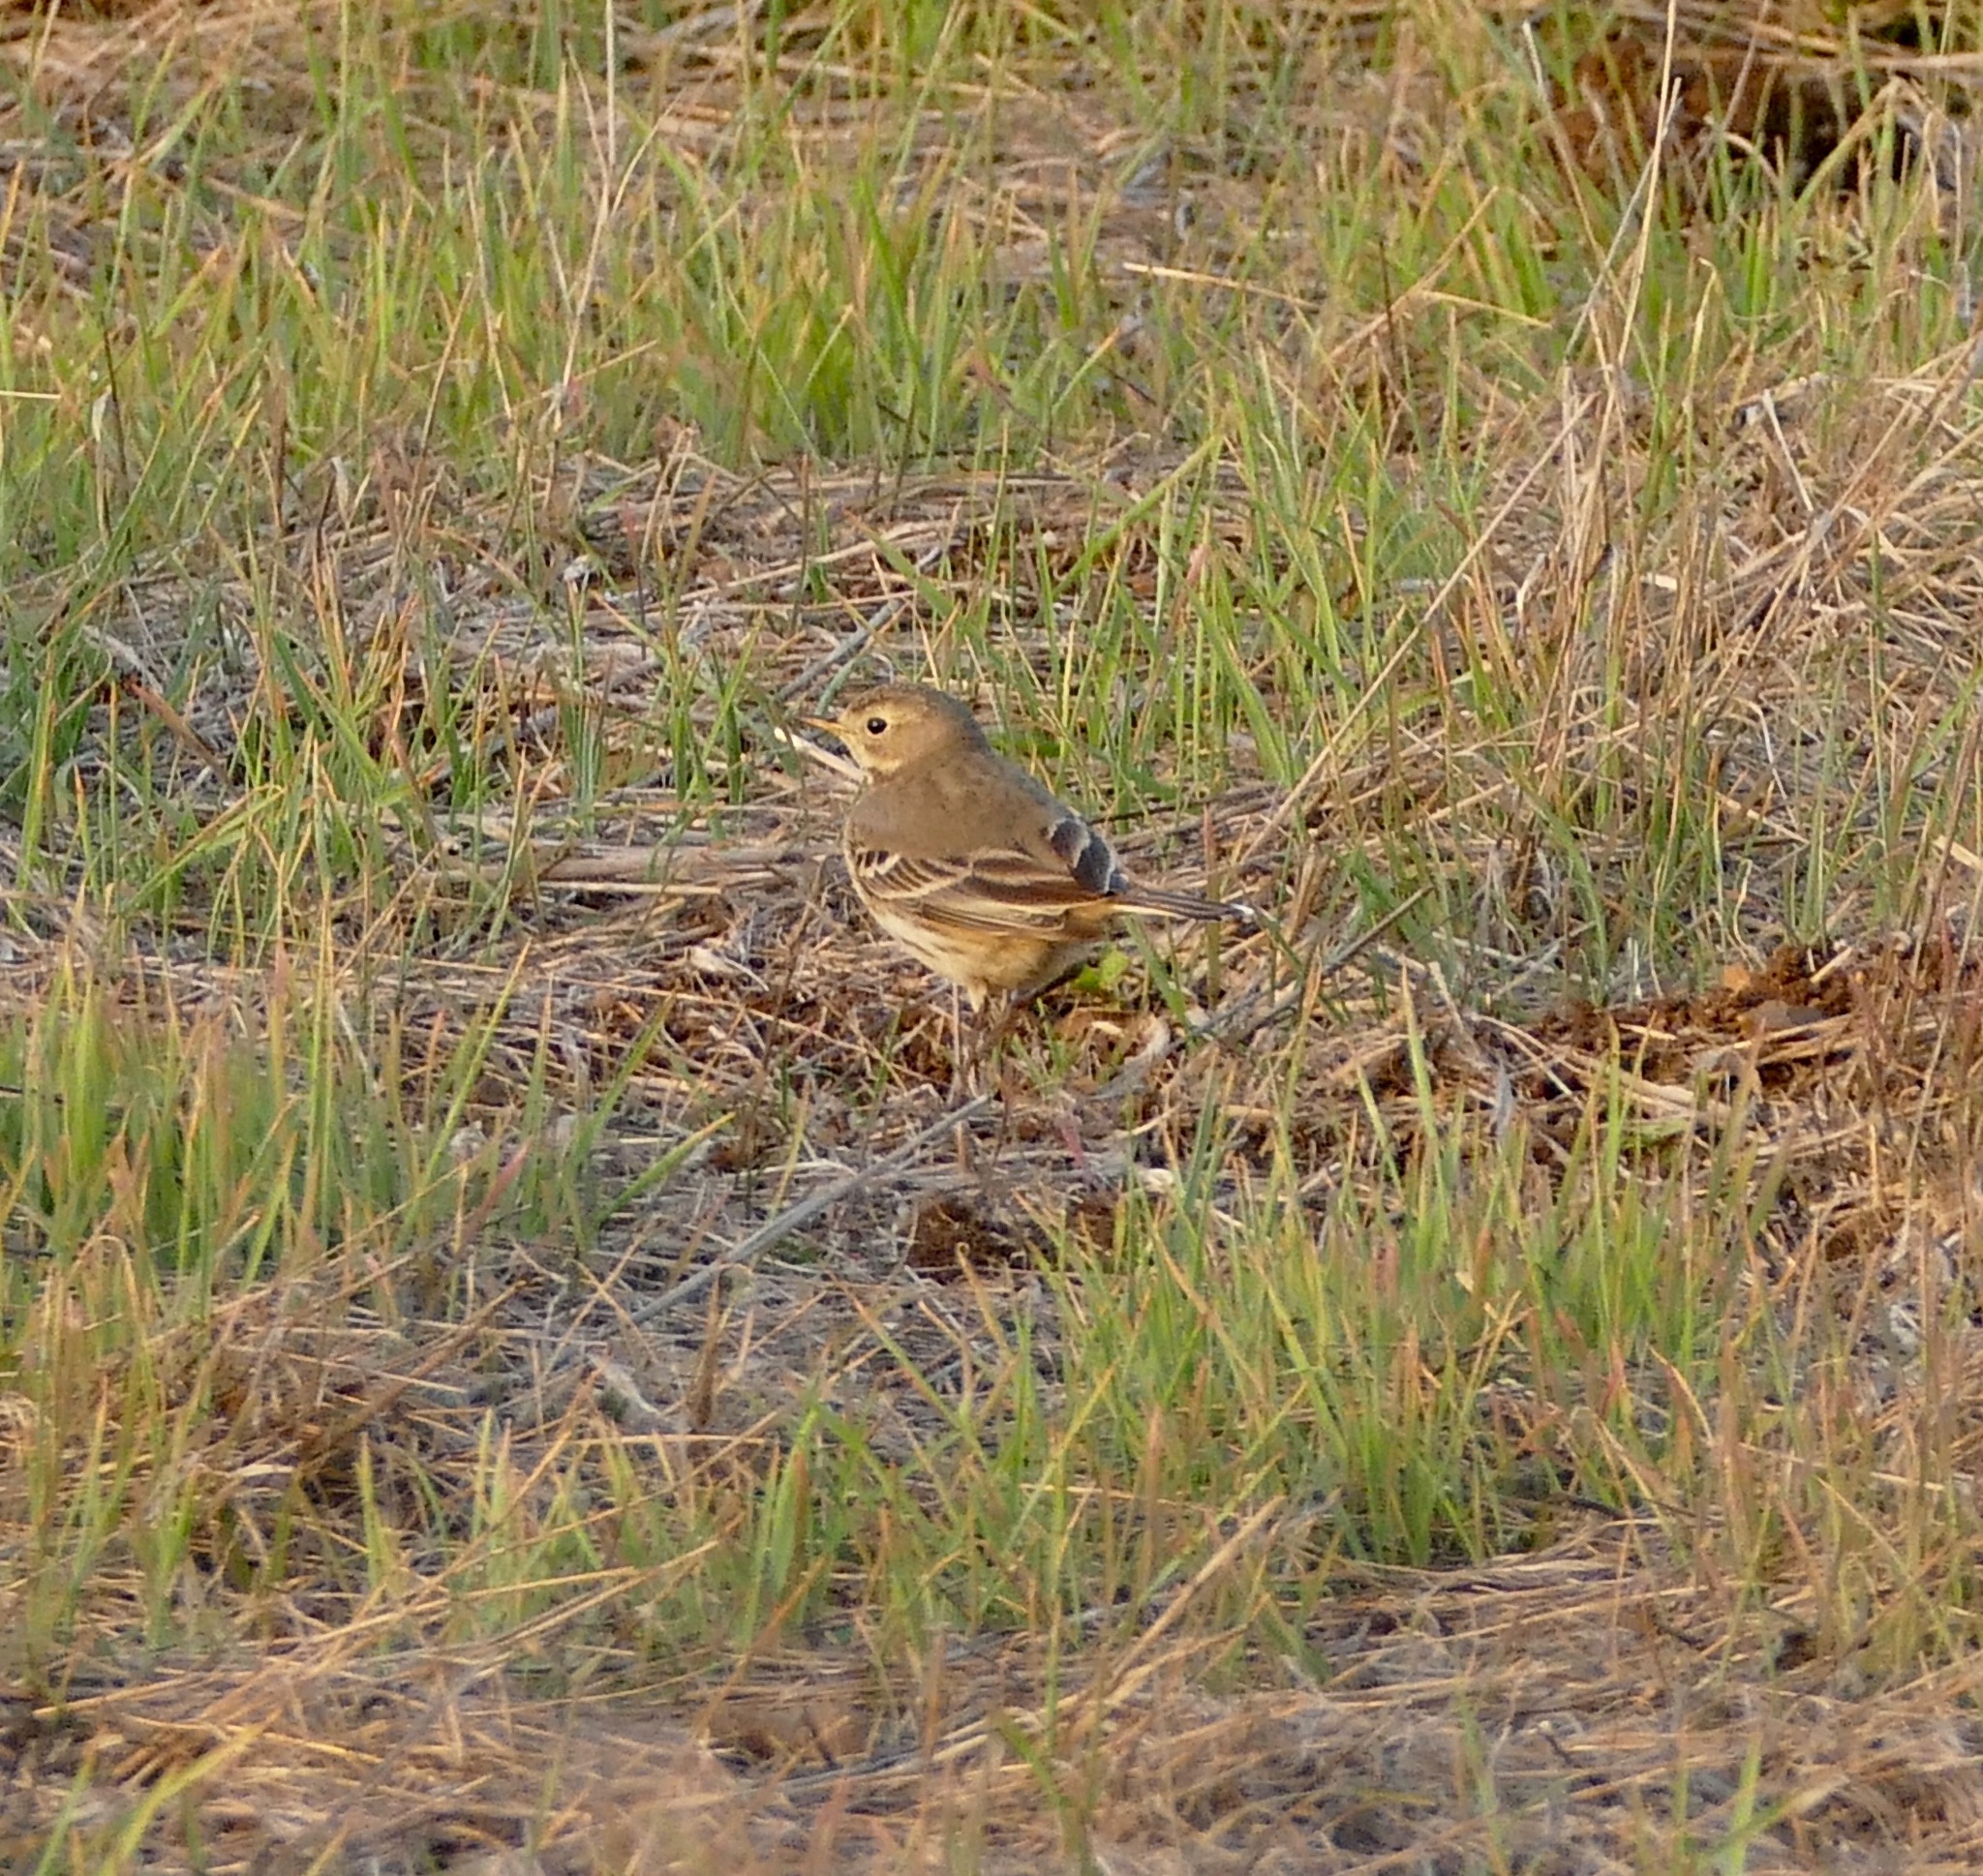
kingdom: Animalia
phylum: Chordata
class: Aves
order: Passeriformes
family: Motacillidae
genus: Anthus
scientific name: Anthus rubescens
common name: Buff-bellied pipit
